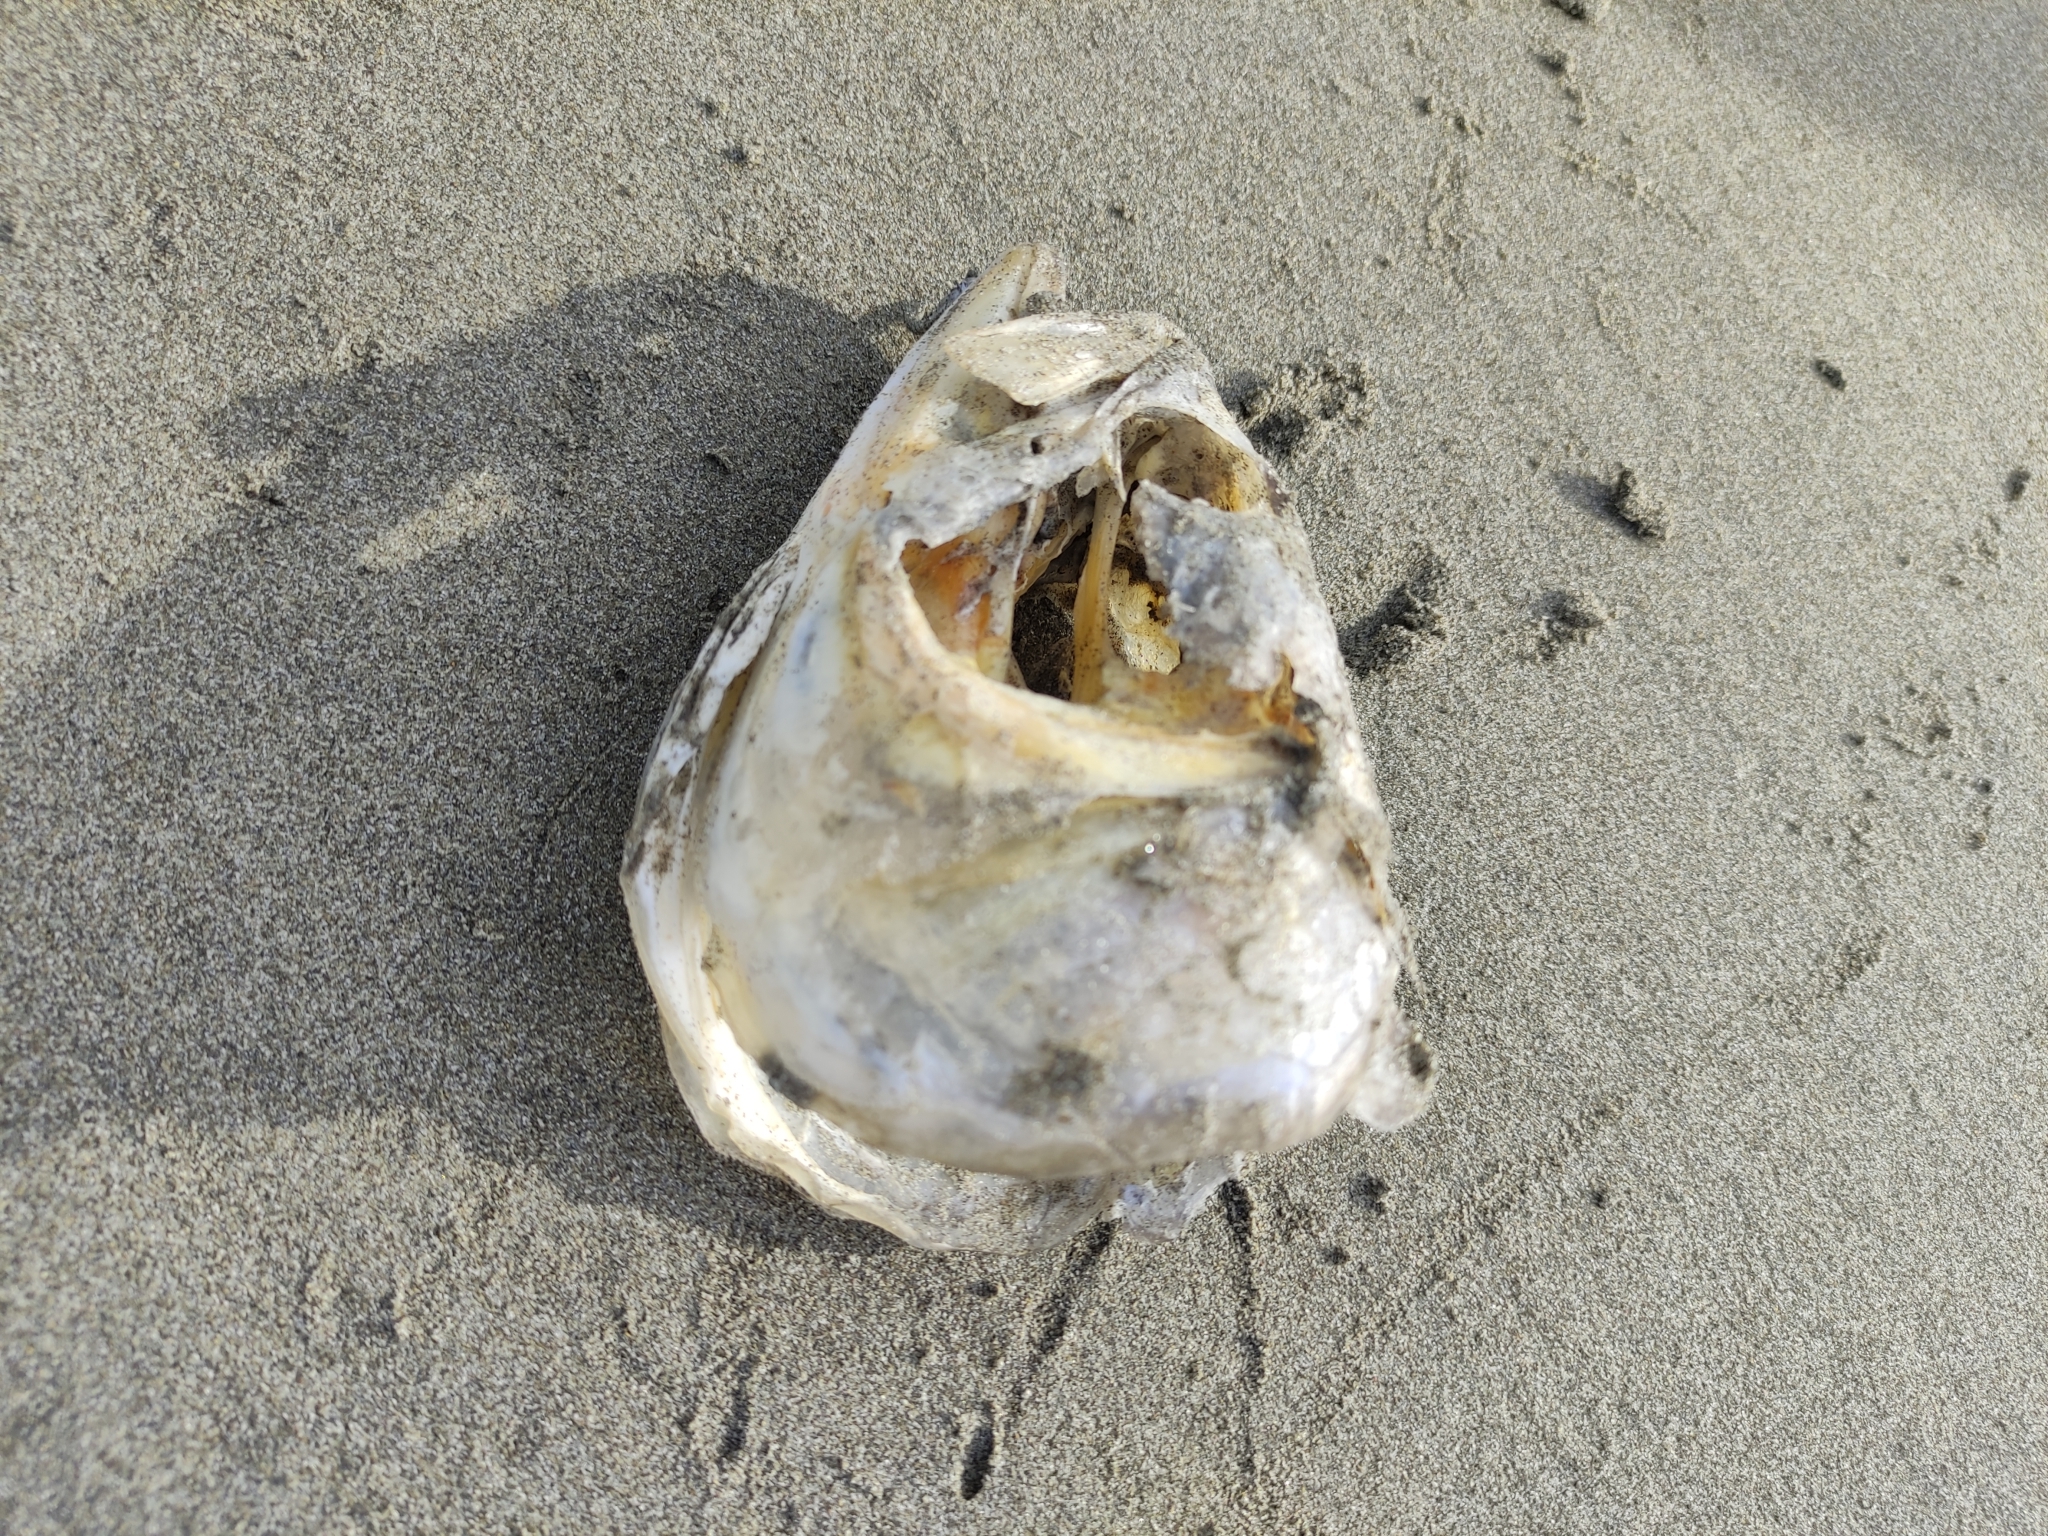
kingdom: Animalia
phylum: Chordata
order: Perciformes
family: Arripidae
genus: Arripis
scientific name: Arripis trutta
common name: Kahawai
